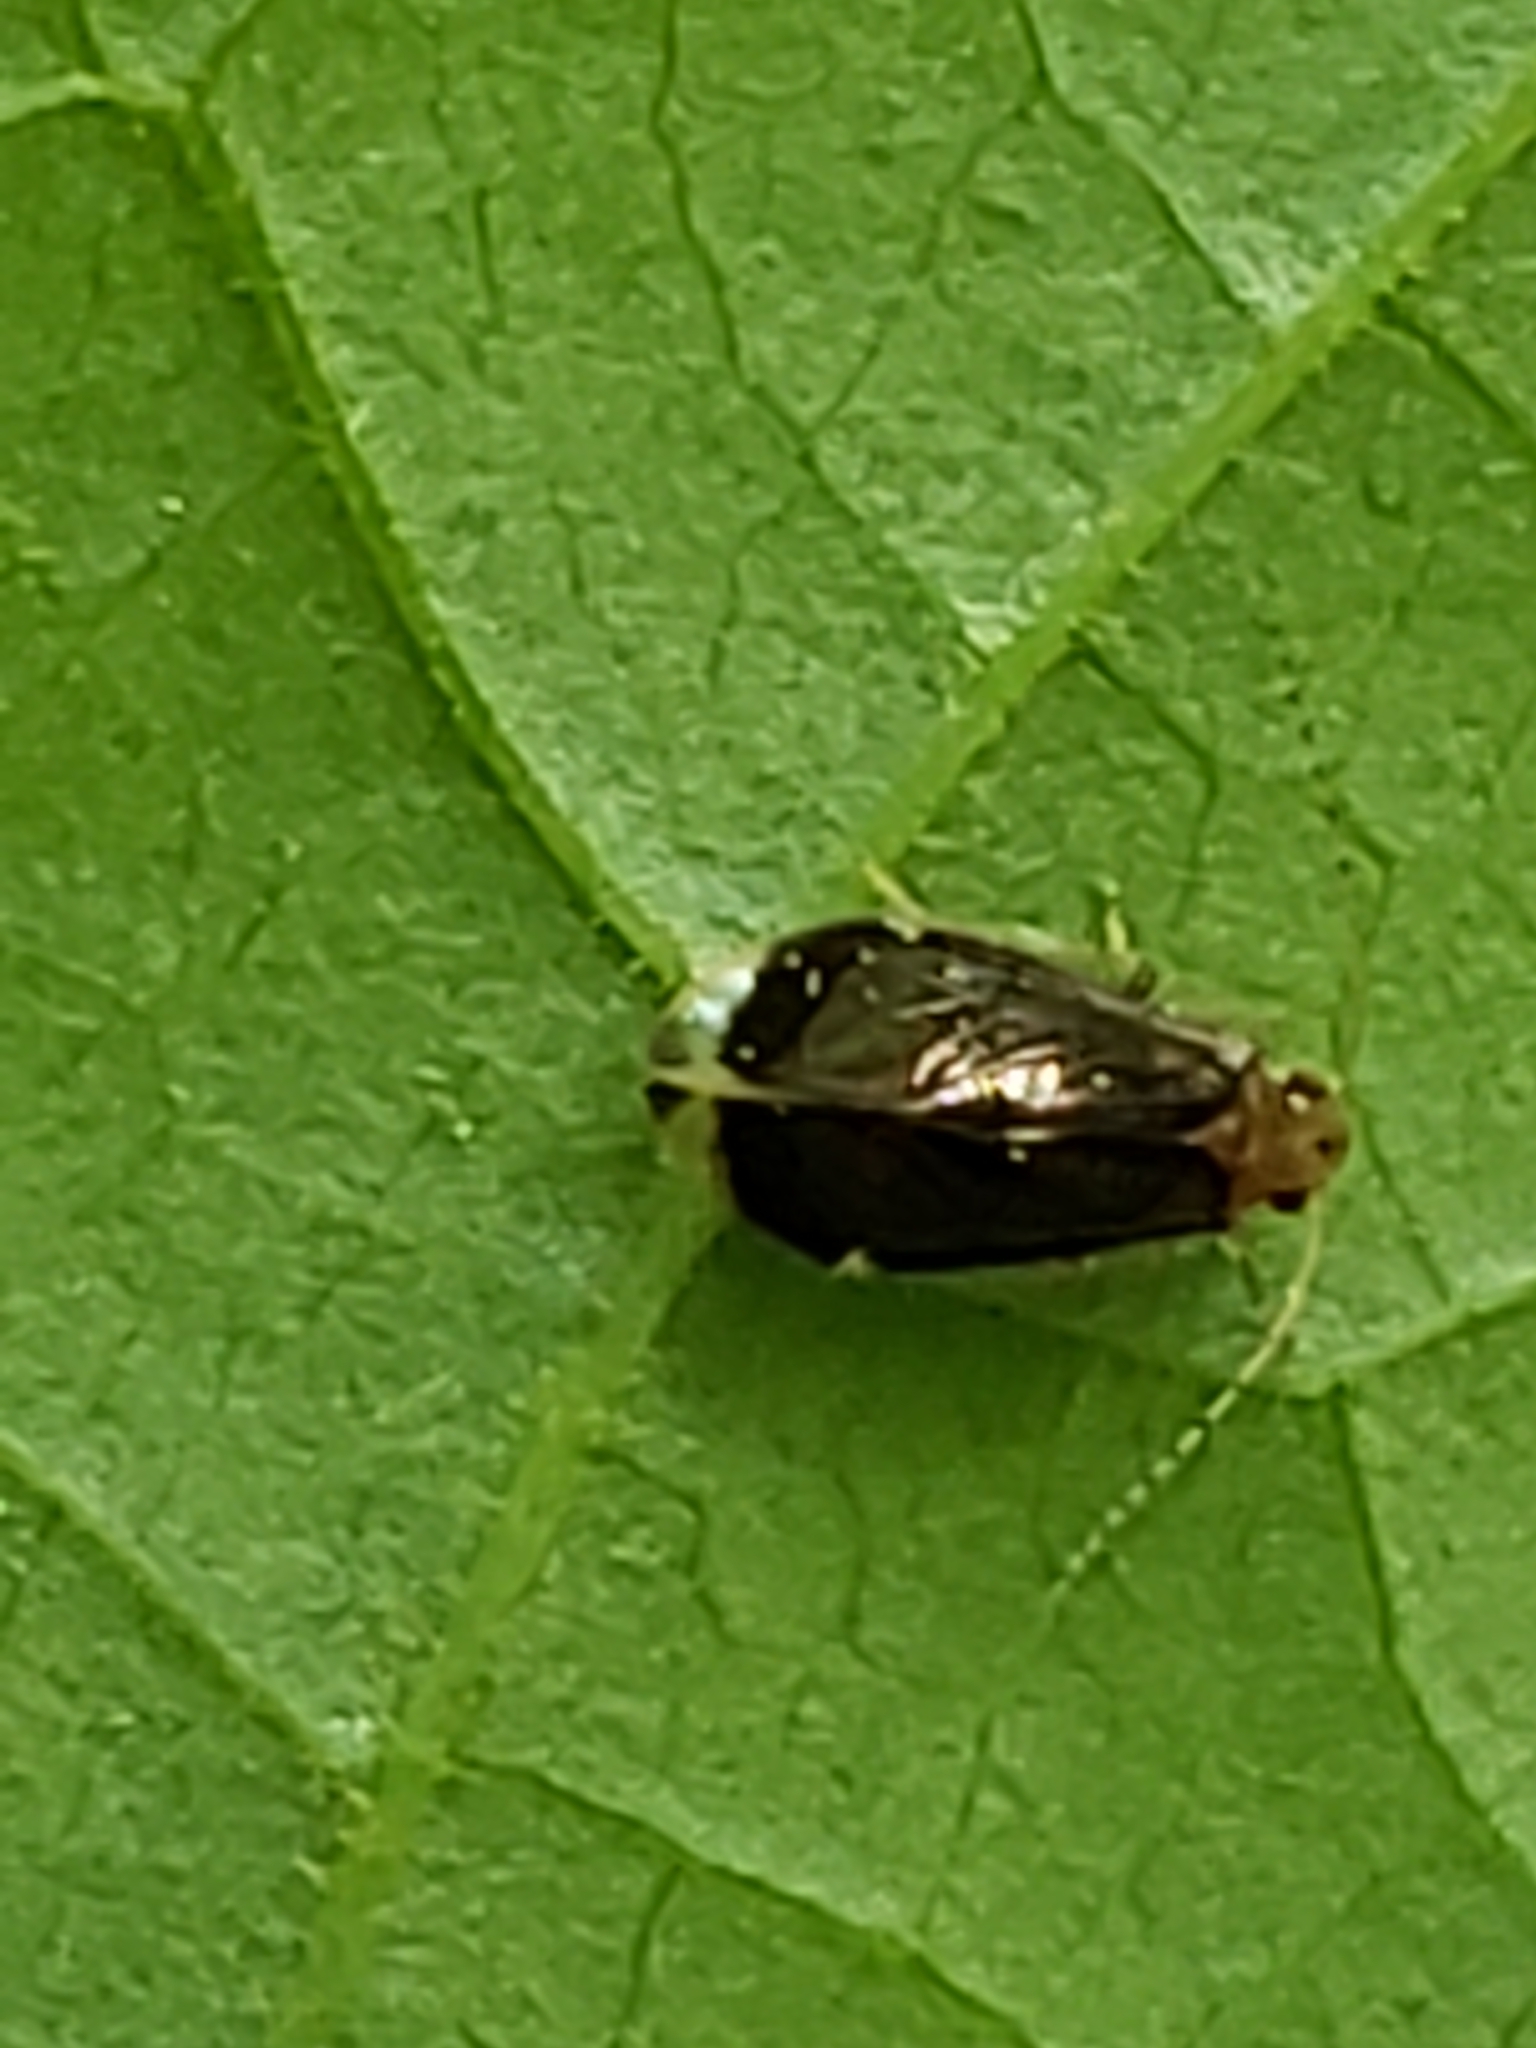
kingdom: Animalia
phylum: Arthropoda
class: Insecta
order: Psocodea
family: Amphipsocidae
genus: Polypsocus
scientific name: Polypsocus corruptus
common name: Corrupt barklouse
